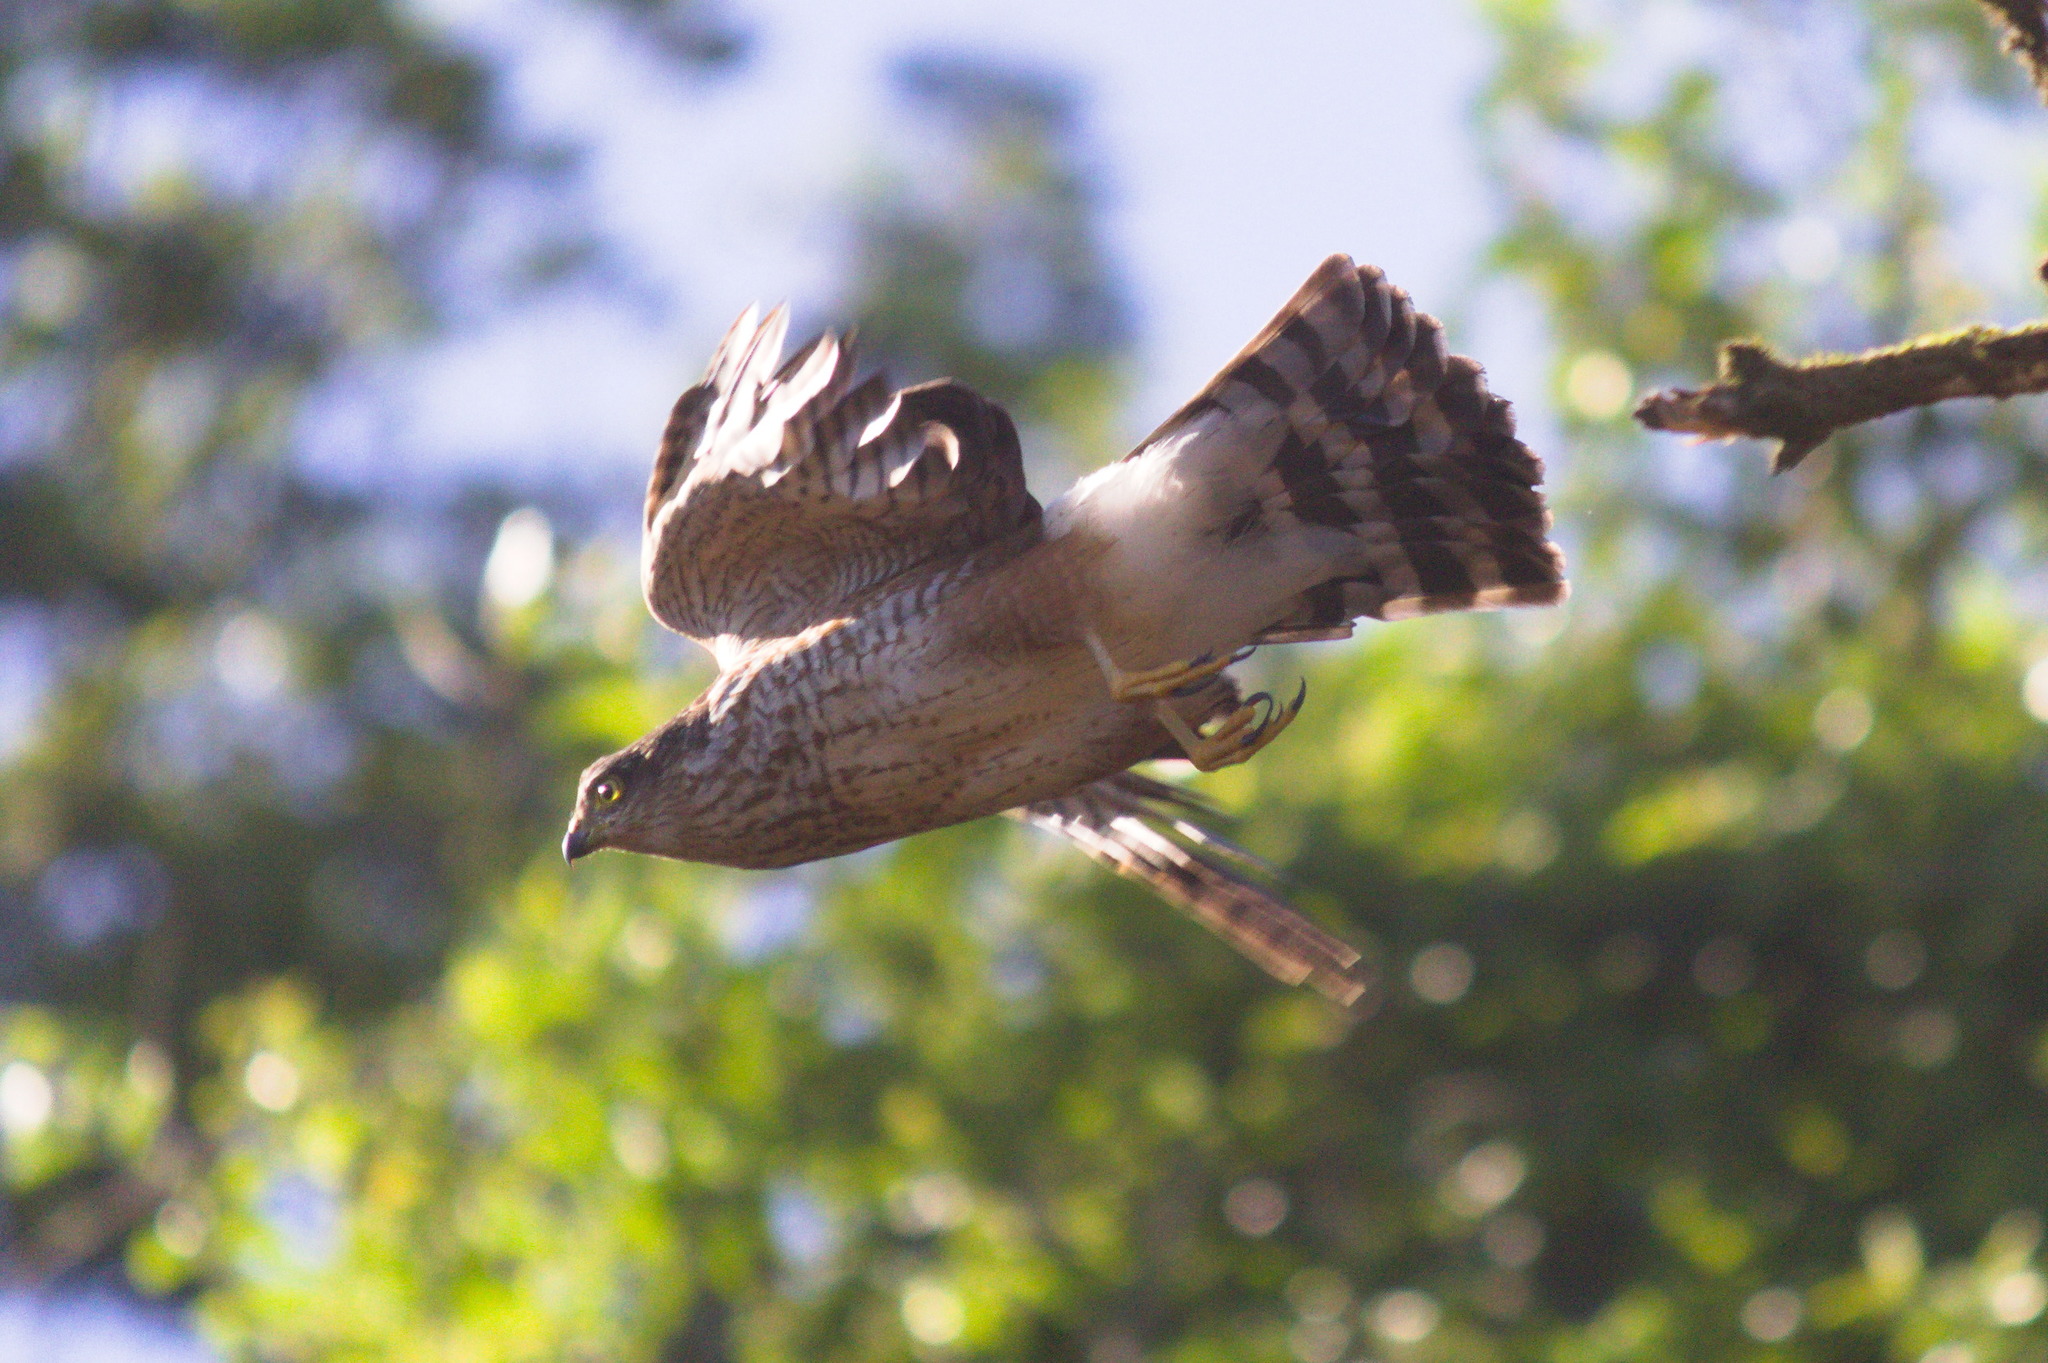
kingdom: Animalia
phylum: Chordata
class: Aves
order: Accipitriformes
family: Accipitridae
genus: Accipiter
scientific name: Accipiter striatus
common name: Sharp-shinned hawk
